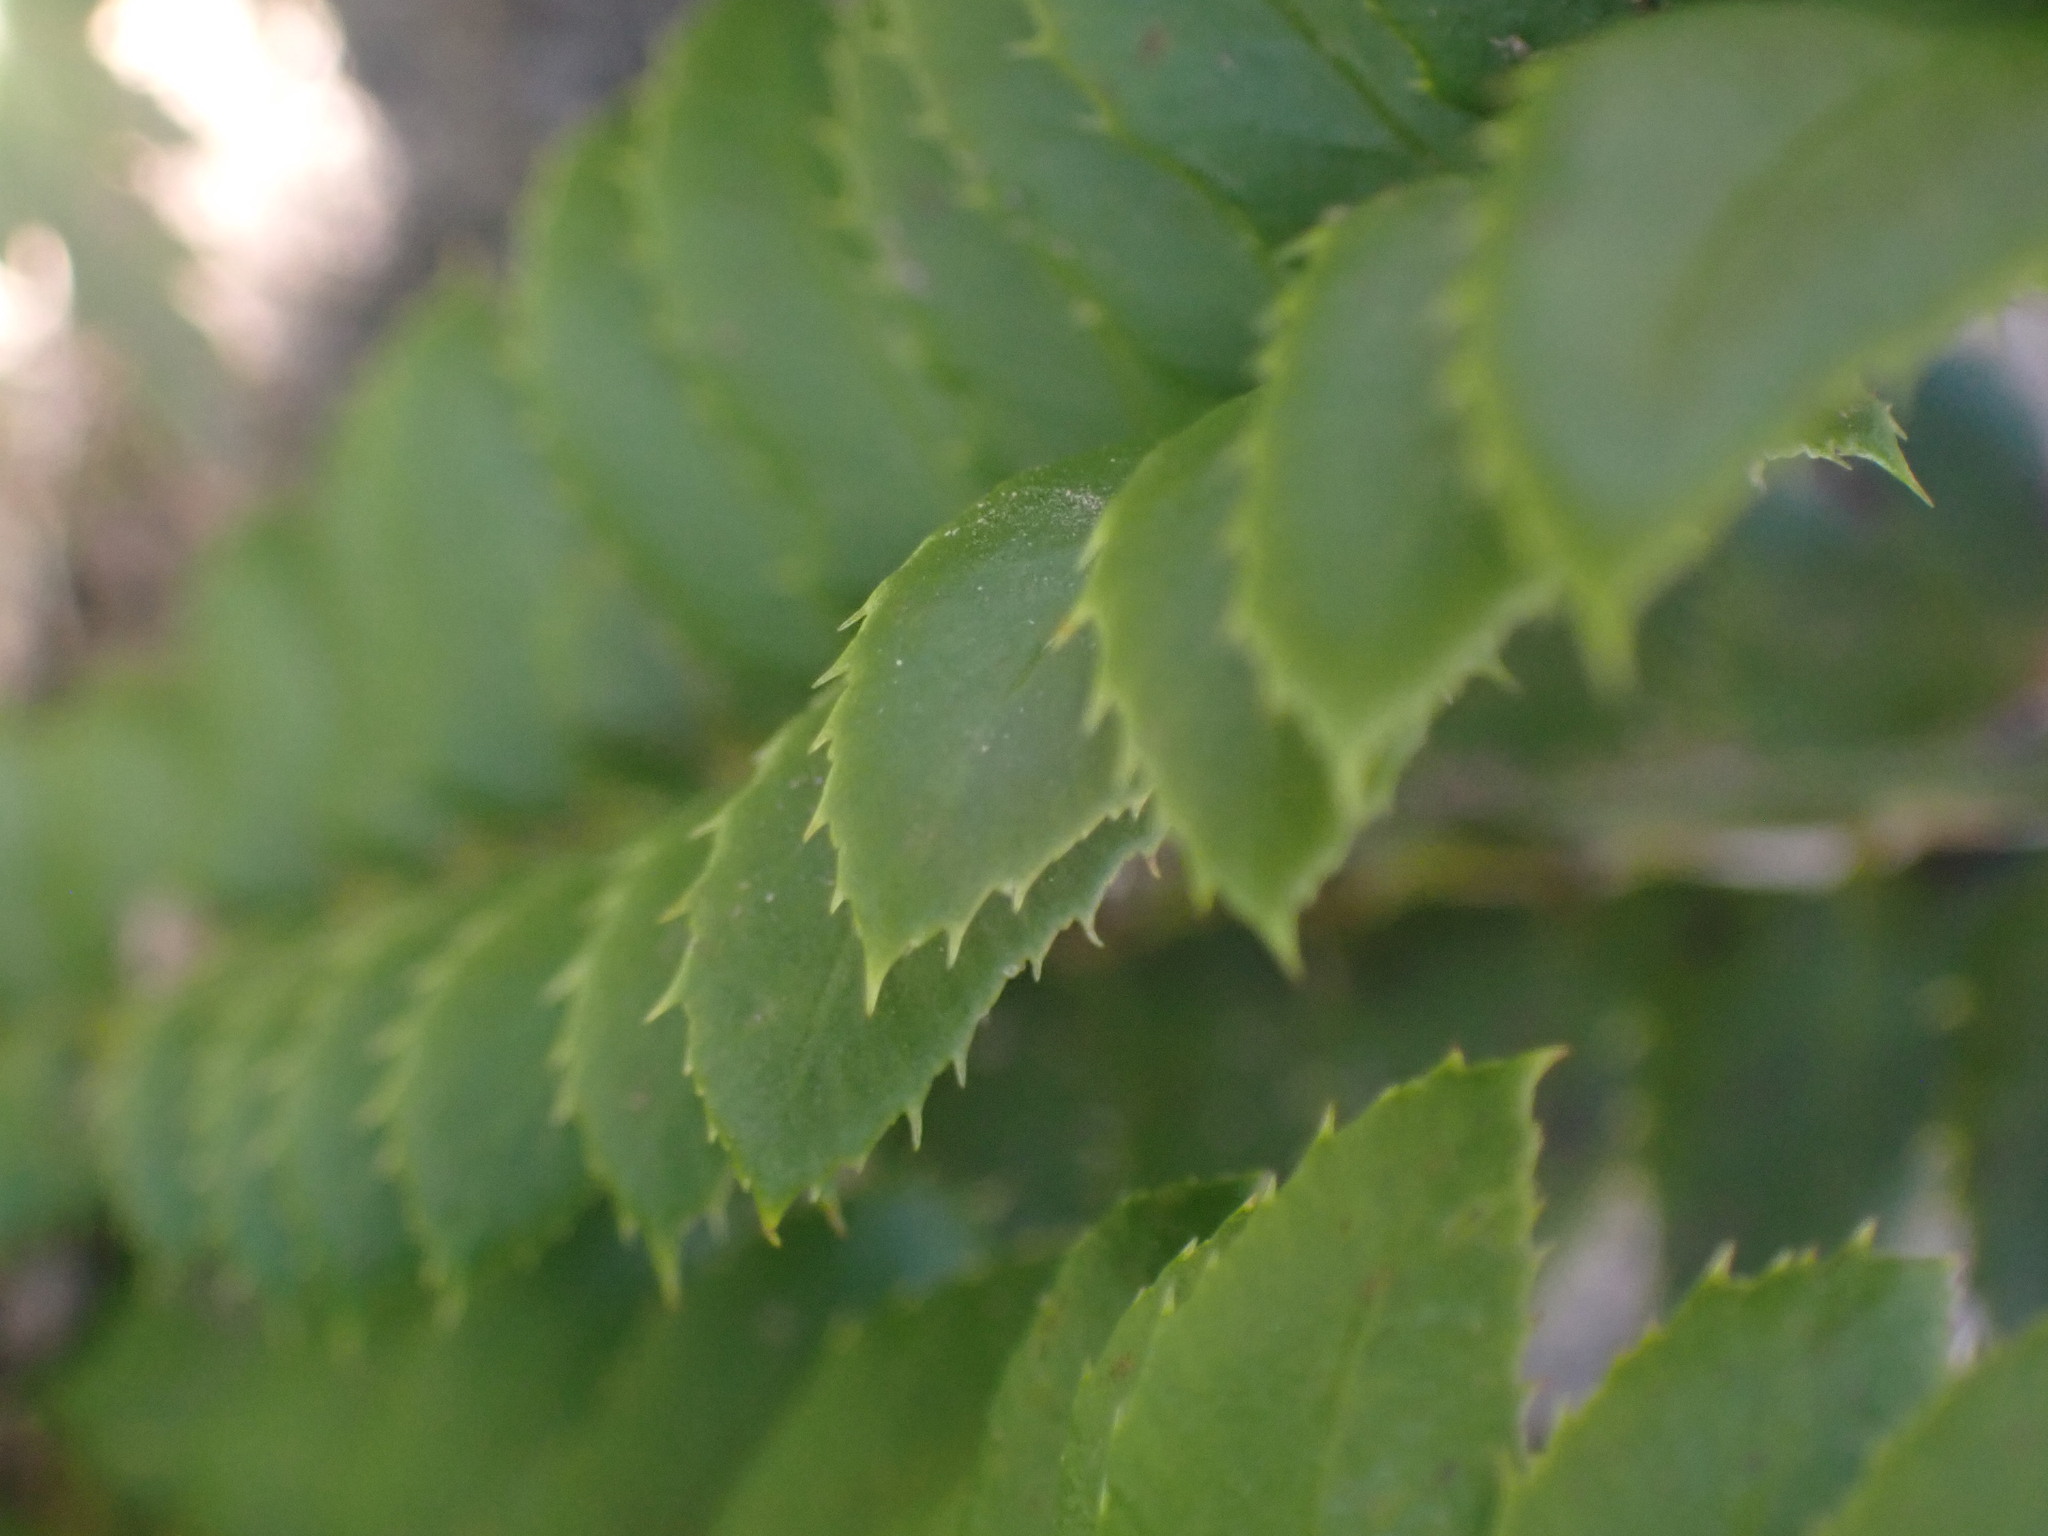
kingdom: Plantae
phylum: Tracheophyta
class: Polypodiopsida
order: Polypodiales
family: Dryopteridaceae
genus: Polystichum
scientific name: Polystichum lonchitis
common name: Holly fern
